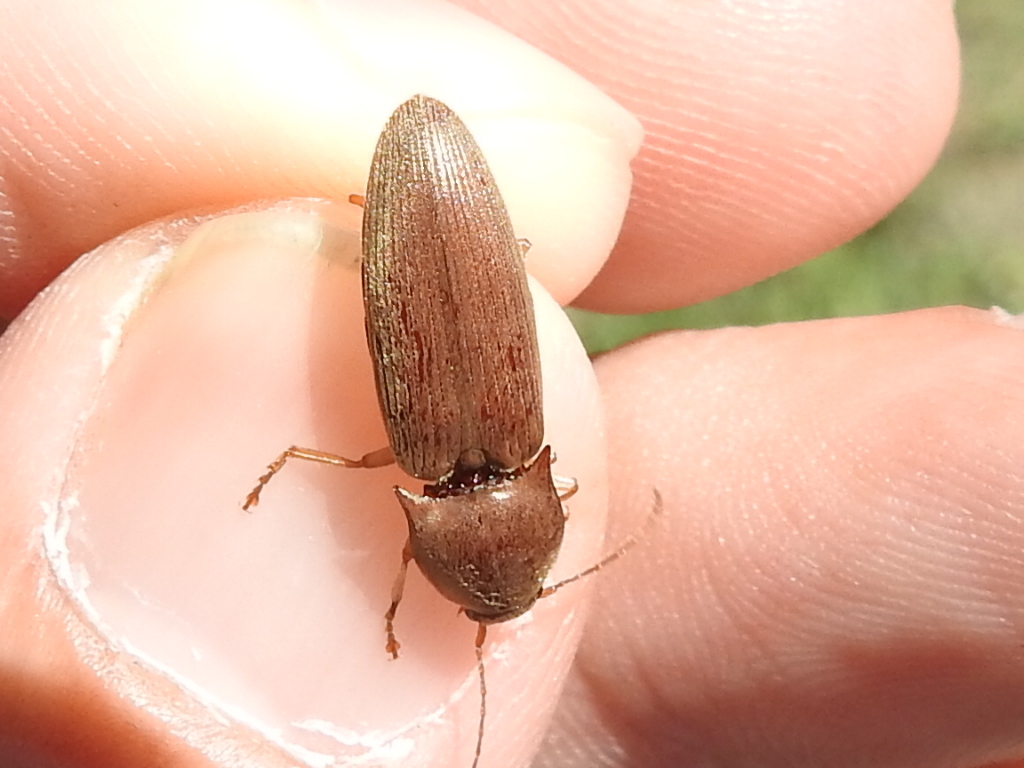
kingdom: Animalia
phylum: Arthropoda
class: Insecta
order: Coleoptera
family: Elateridae
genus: Monocrepidius
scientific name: Monocrepidius lividus
